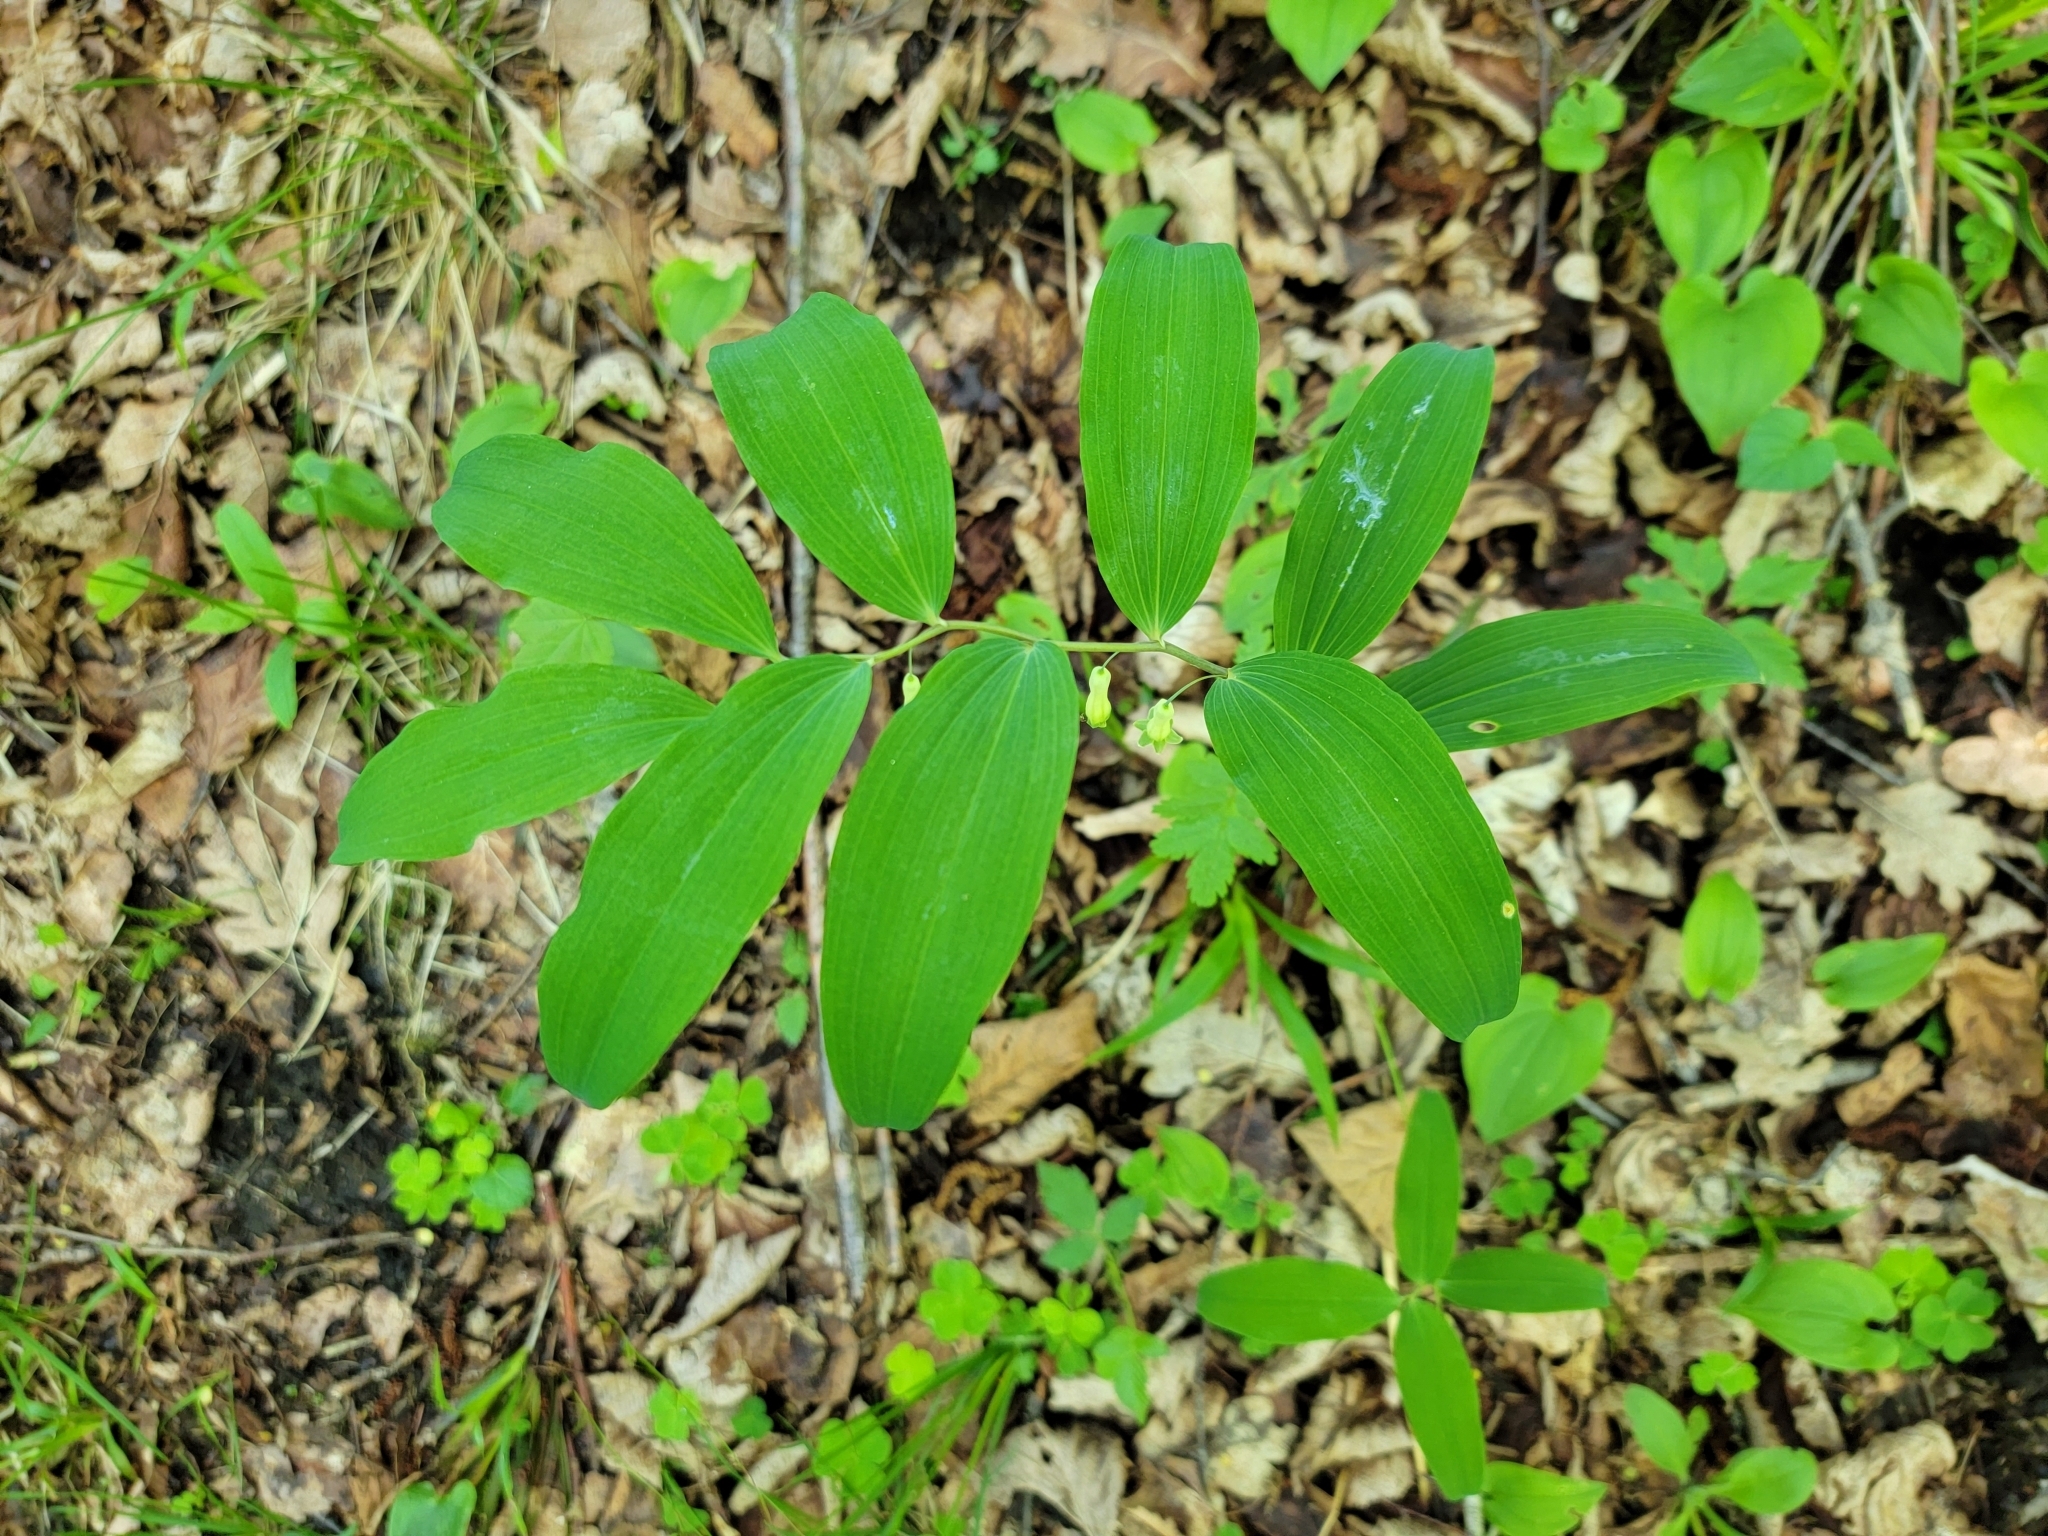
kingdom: Plantae
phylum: Tracheophyta
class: Liliopsida
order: Asparagales
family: Asparagaceae
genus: Polygonatum
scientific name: Polygonatum multiflorum
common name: Solomon's-seal
